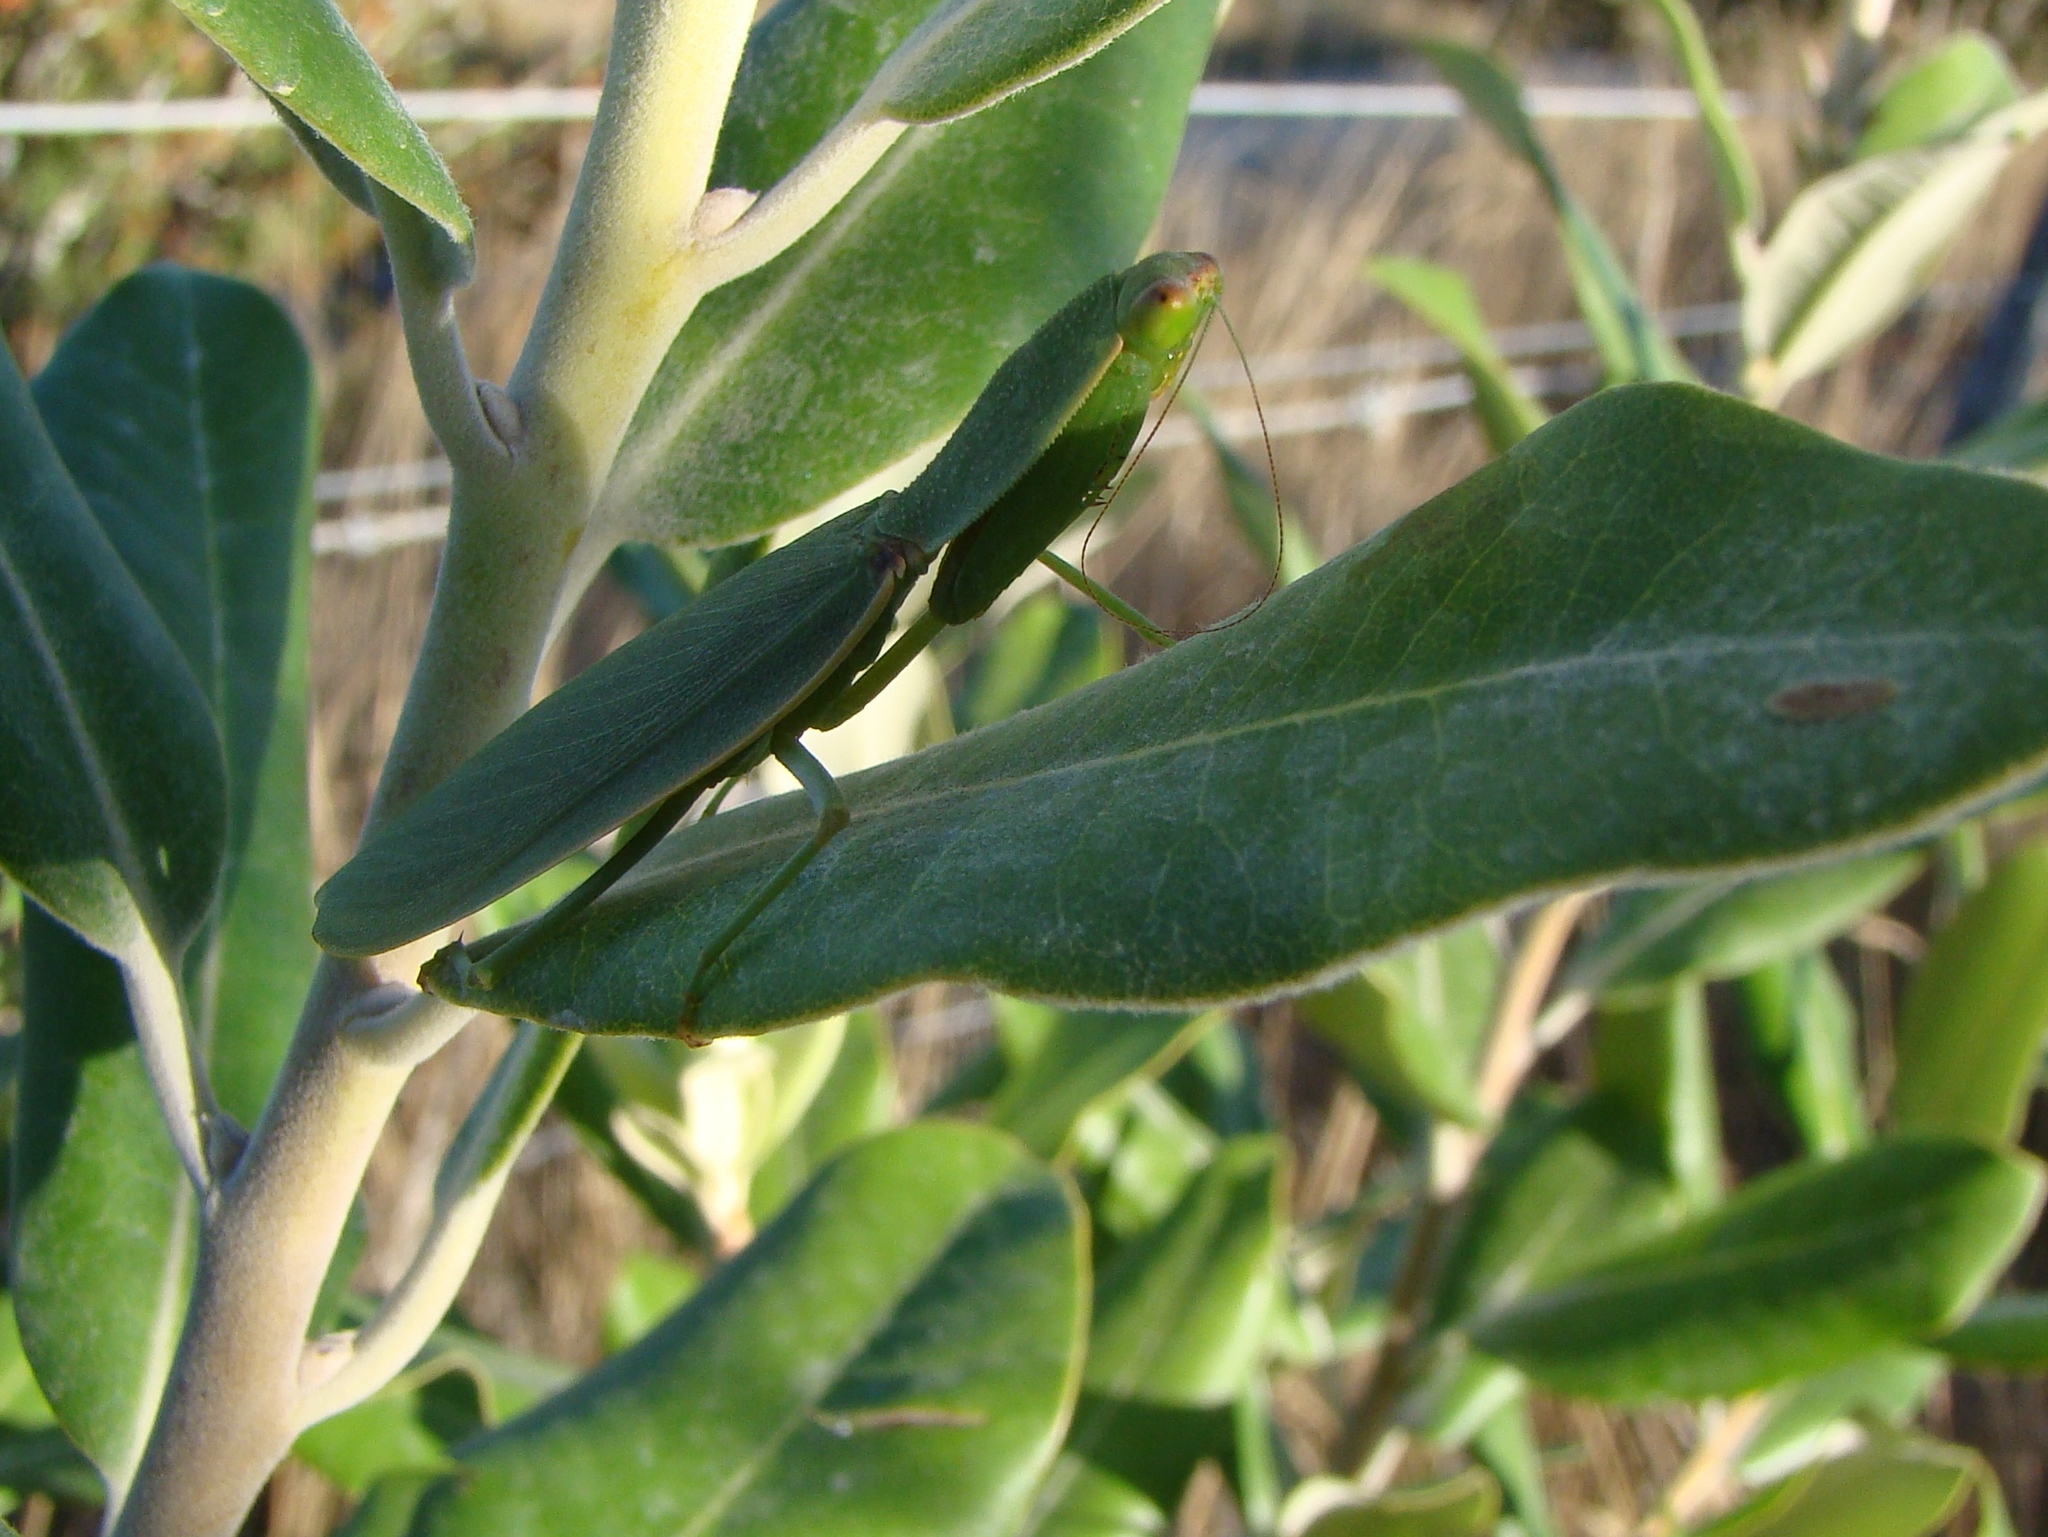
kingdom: Animalia
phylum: Arthropoda
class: Insecta
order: Mantodea
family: Mantidae
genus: Orthodera
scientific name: Orthodera novaezealandiae
